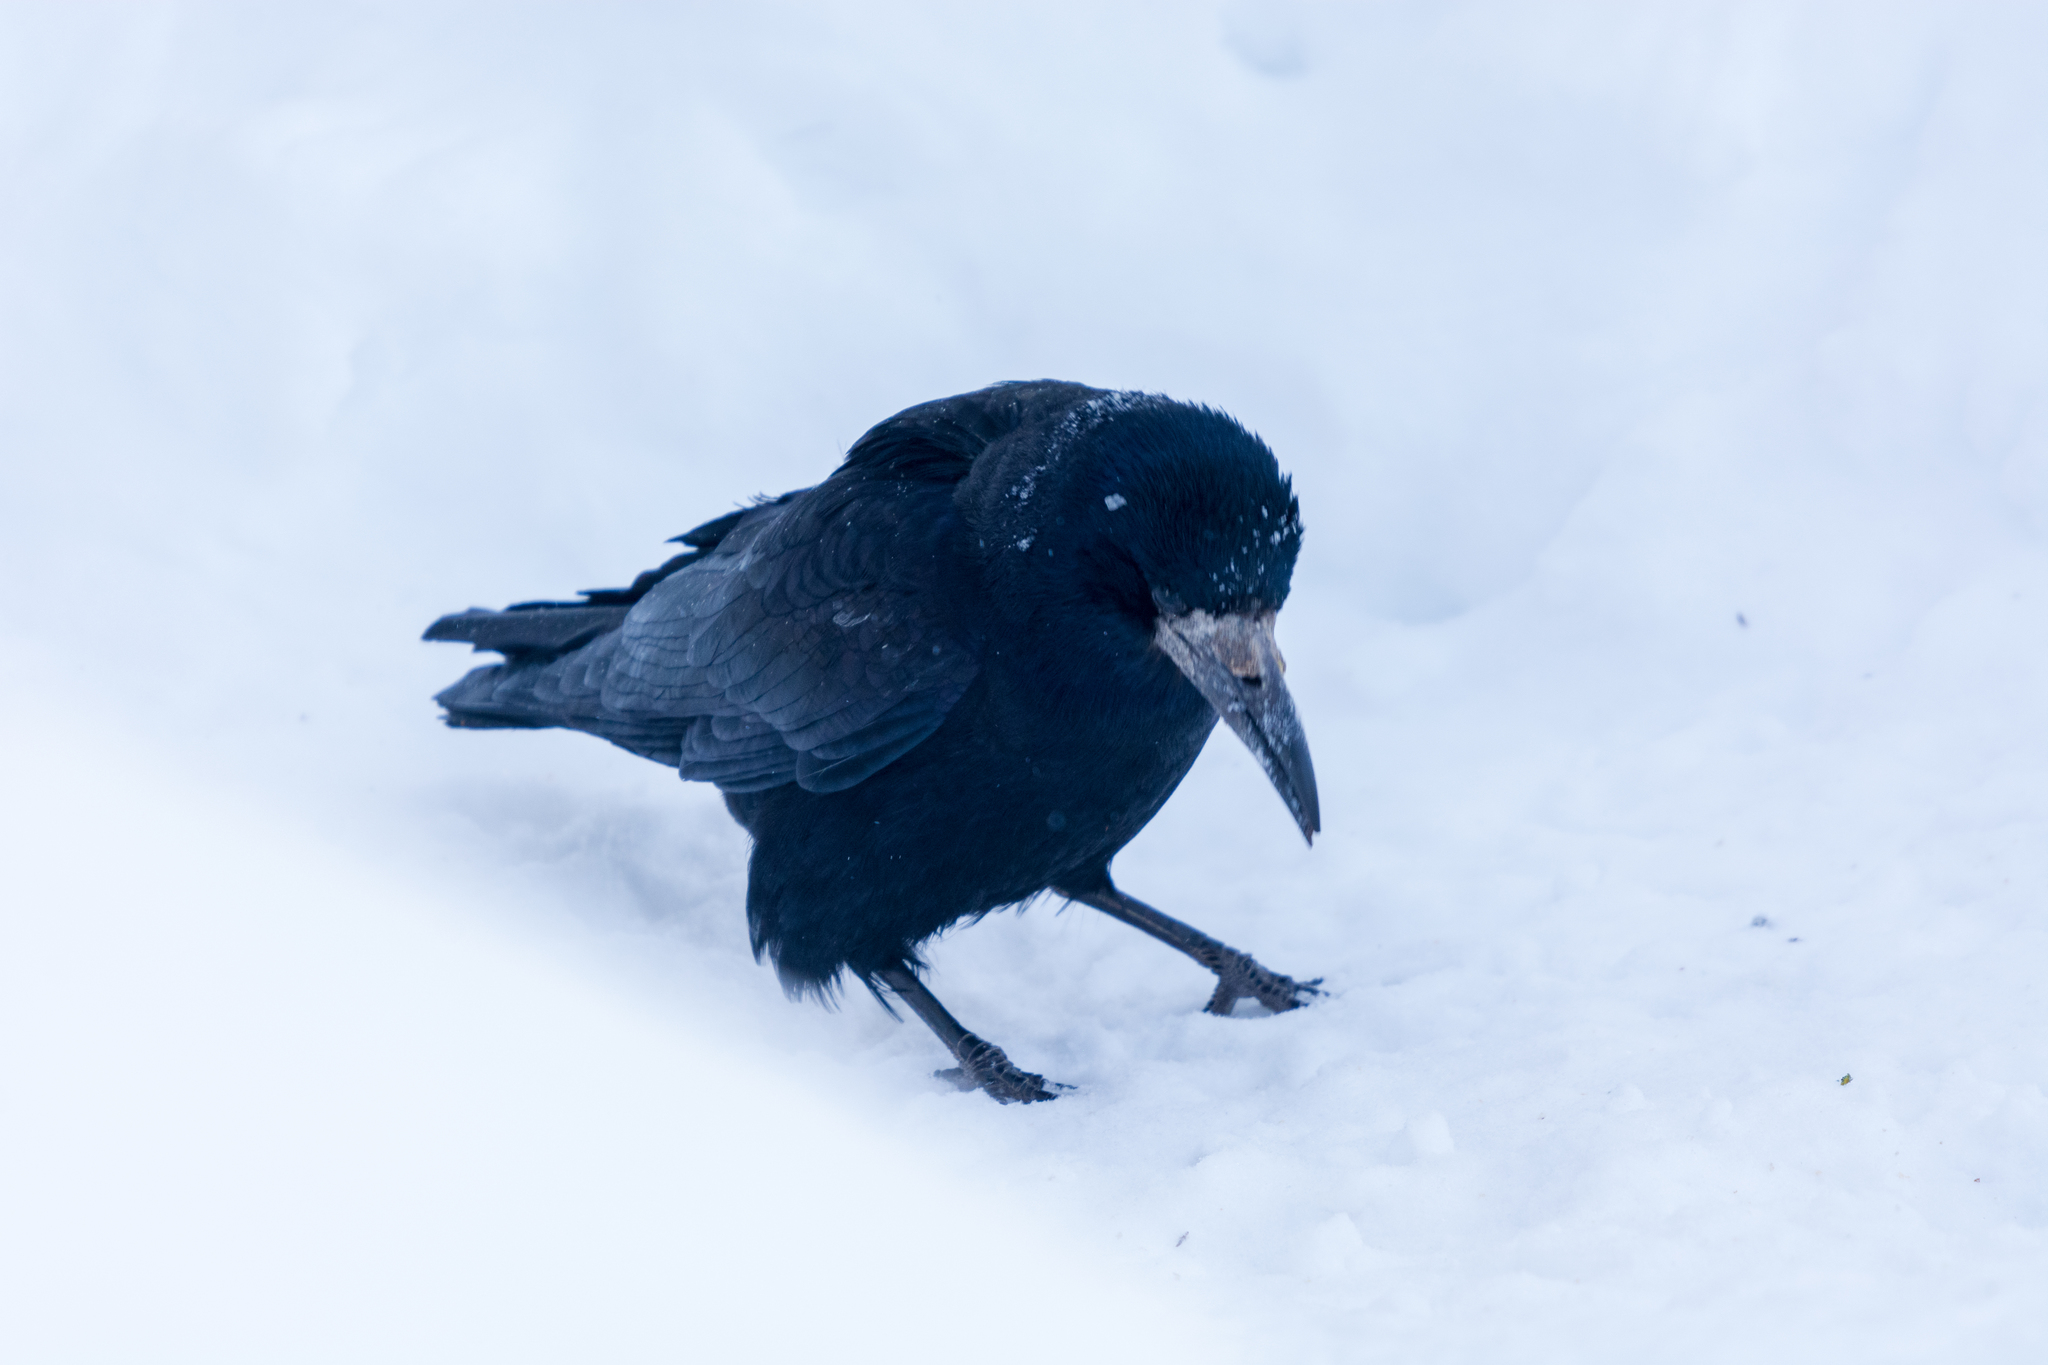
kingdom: Animalia
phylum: Chordata
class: Aves
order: Passeriformes
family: Corvidae
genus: Corvus
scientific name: Corvus frugilegus
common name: Rook
